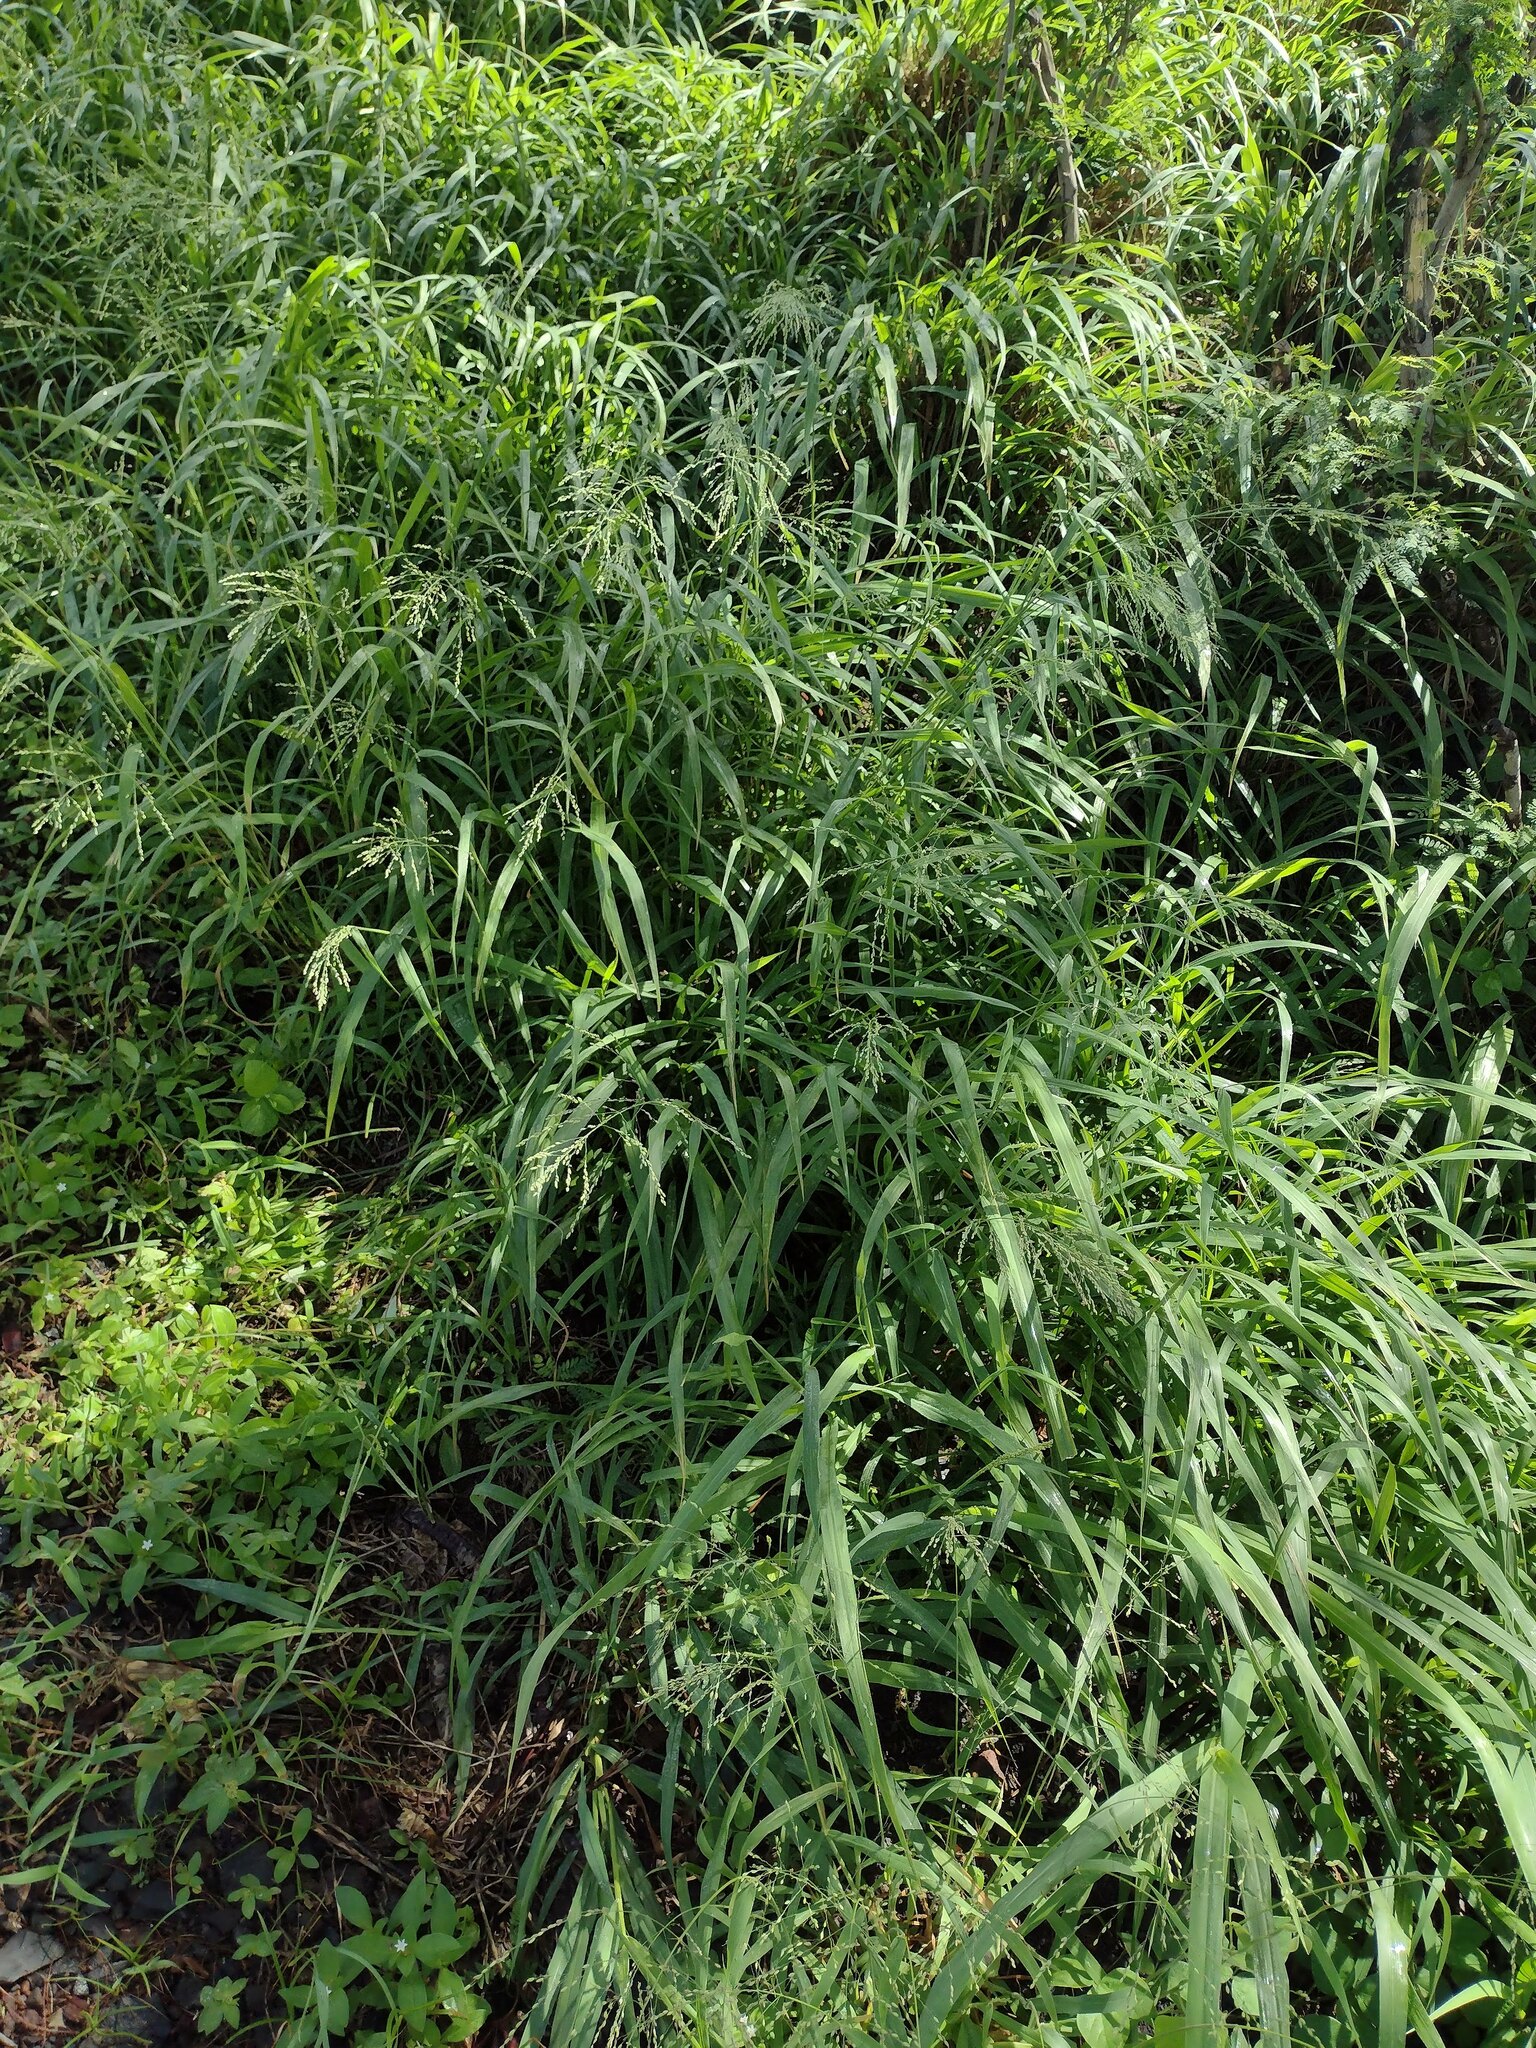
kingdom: Plantae
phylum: Tracheophyta
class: Liliopsida
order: Poales
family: Poaceae
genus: Megathyrsus
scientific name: Megathyrsus maximus
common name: Guineagrass
